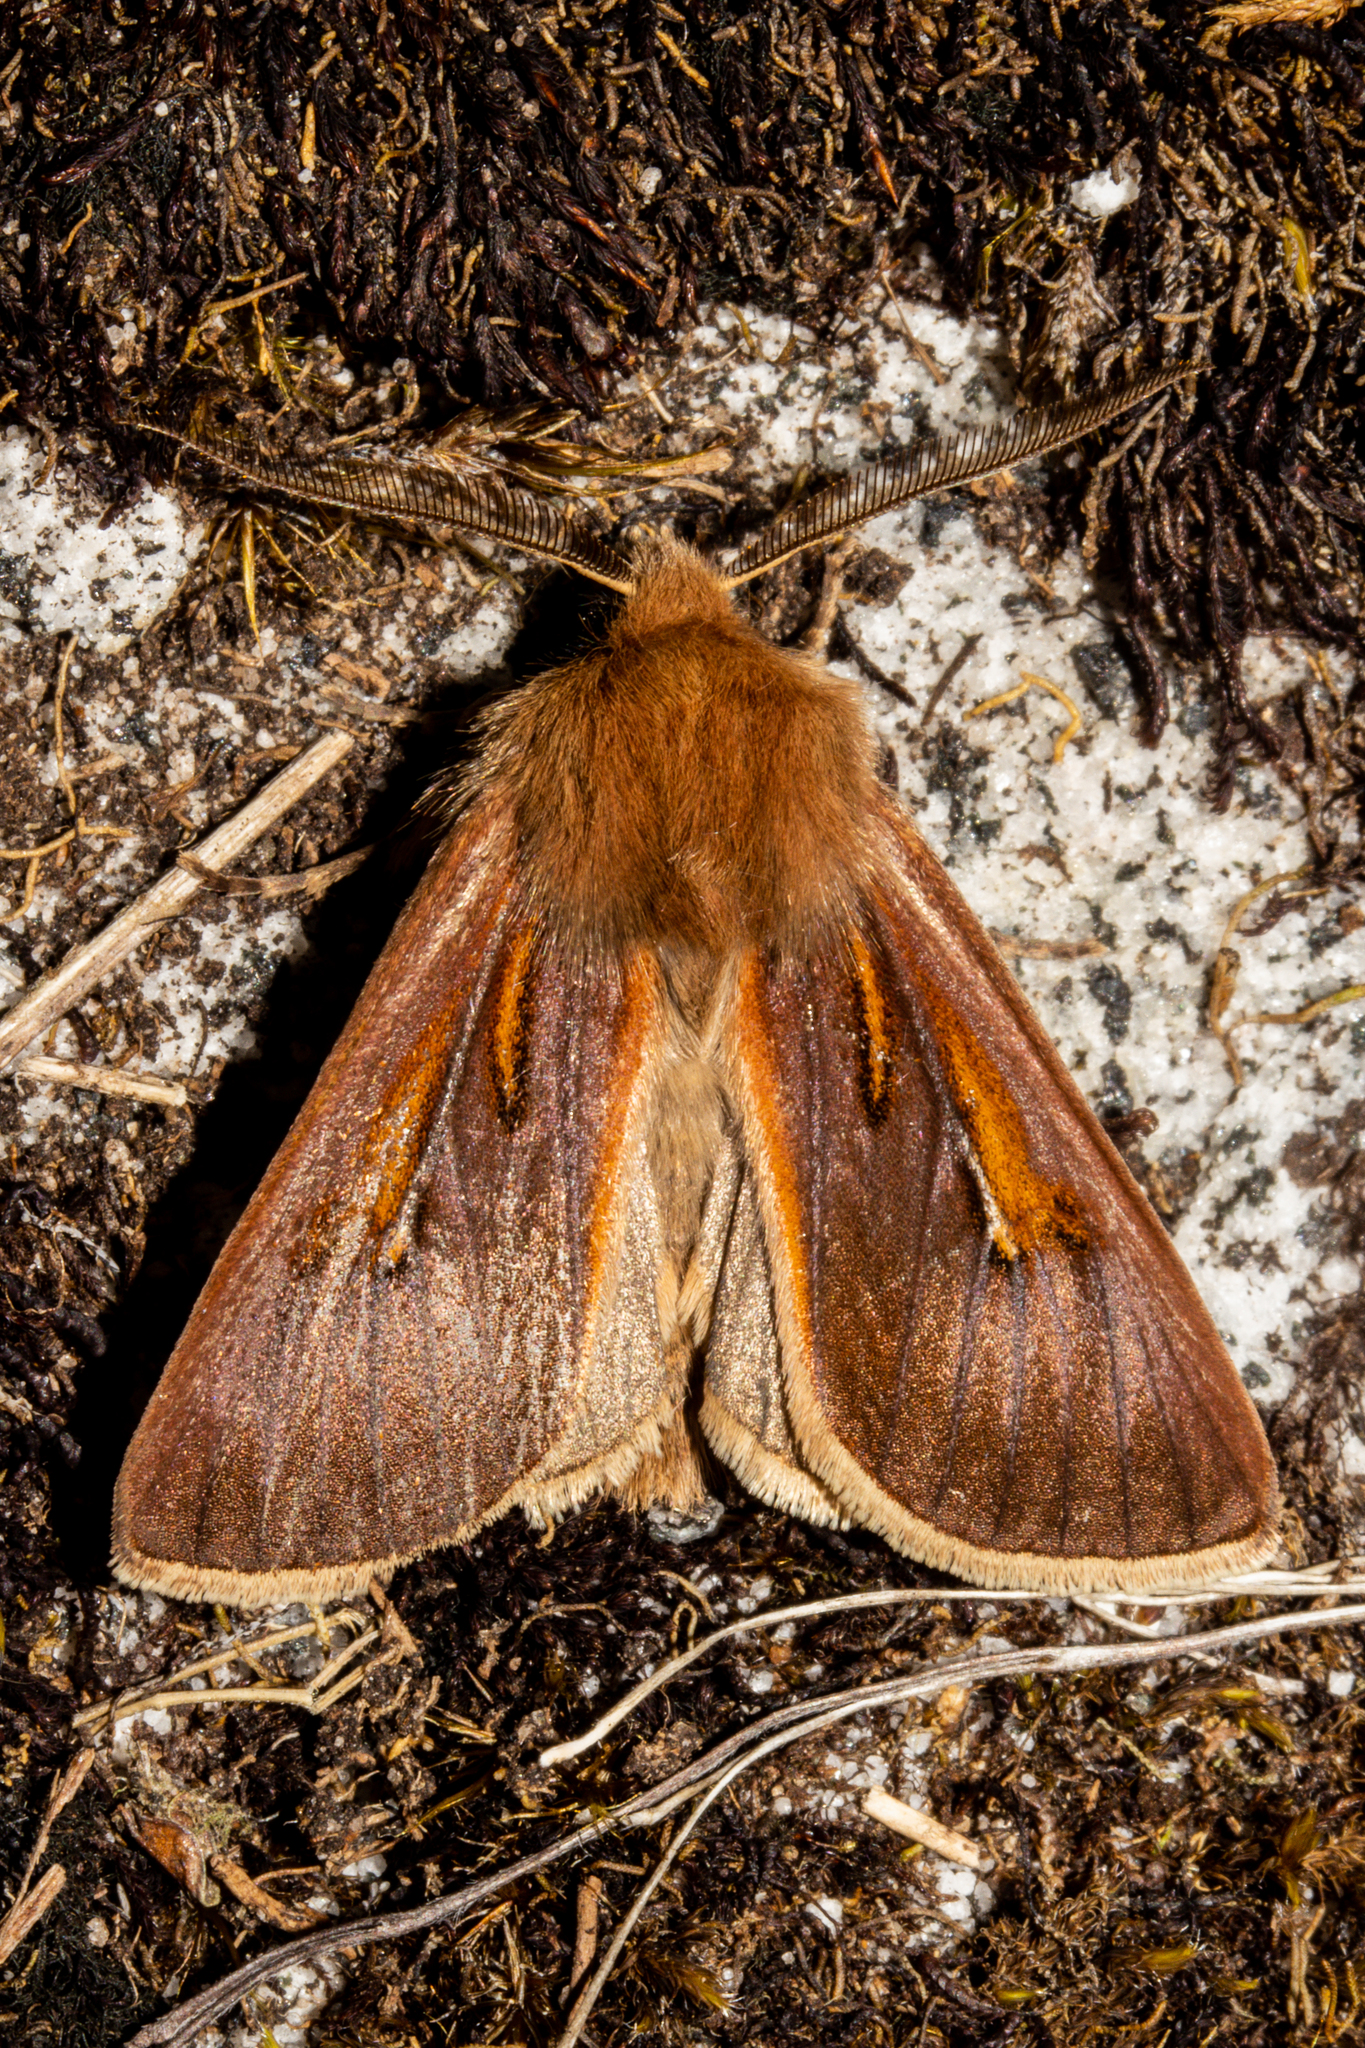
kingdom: Animalia
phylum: Arthropoda
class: Insecta
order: Lepidoptera
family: Noctuidae
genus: Ichneutica
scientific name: Ichneutica dione
